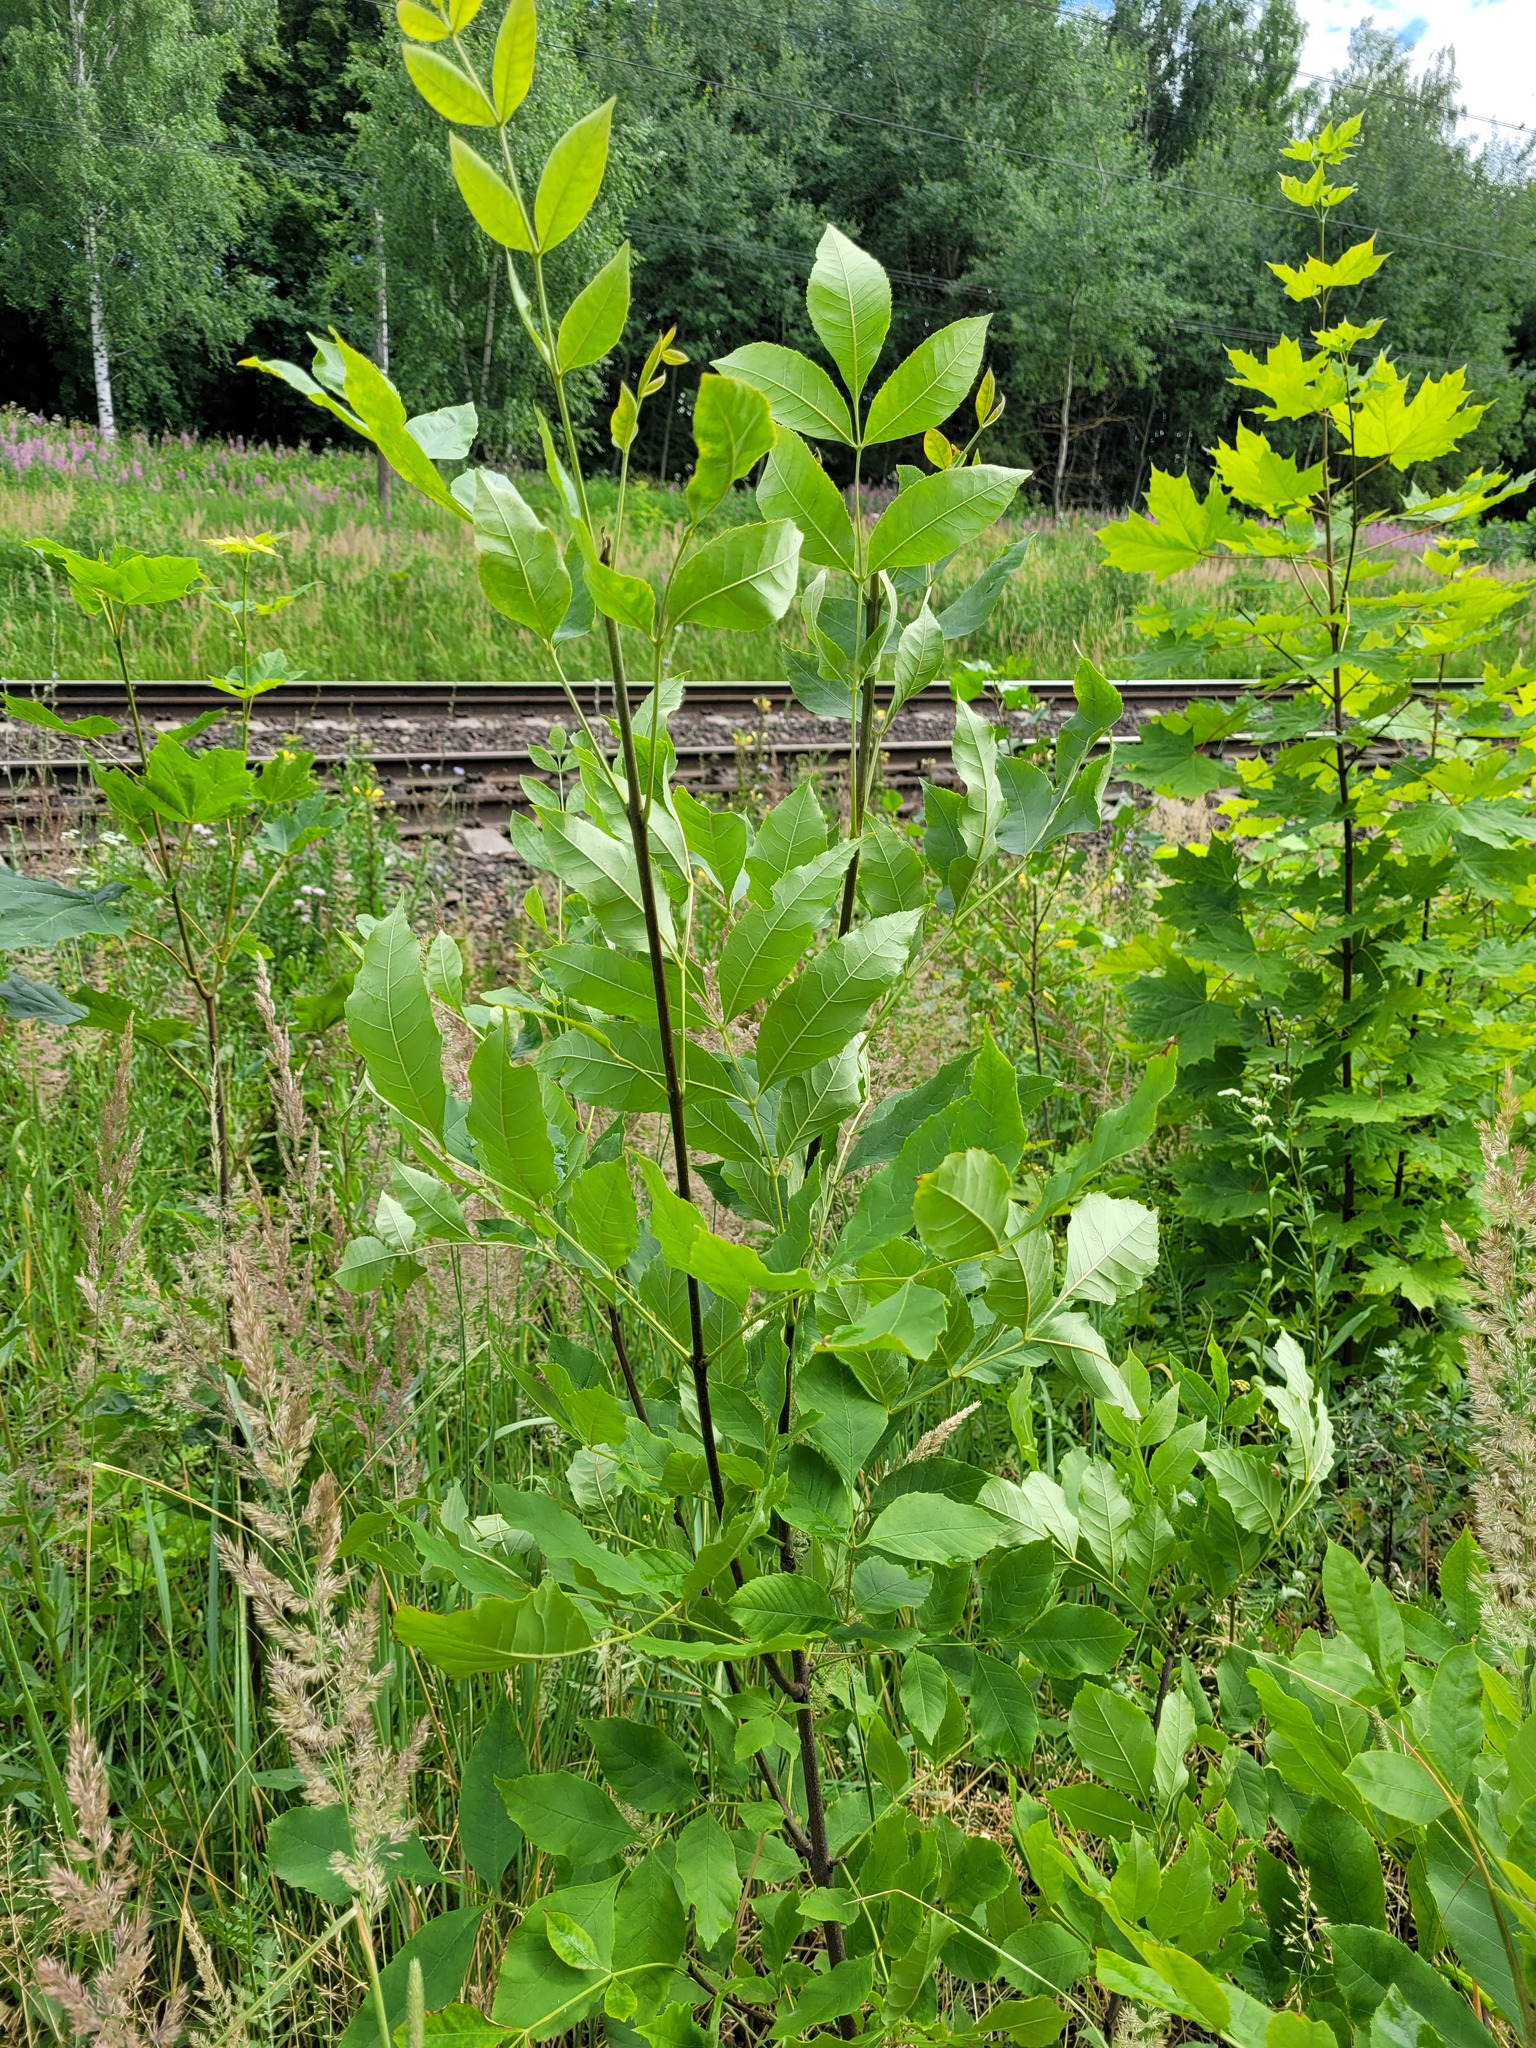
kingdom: Plantae
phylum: Tracheophyta
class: Magnoliopsida
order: Lamiales
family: Oleaceae
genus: Fraxinus
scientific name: Fraxinus pennsylvanica
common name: Green ash
